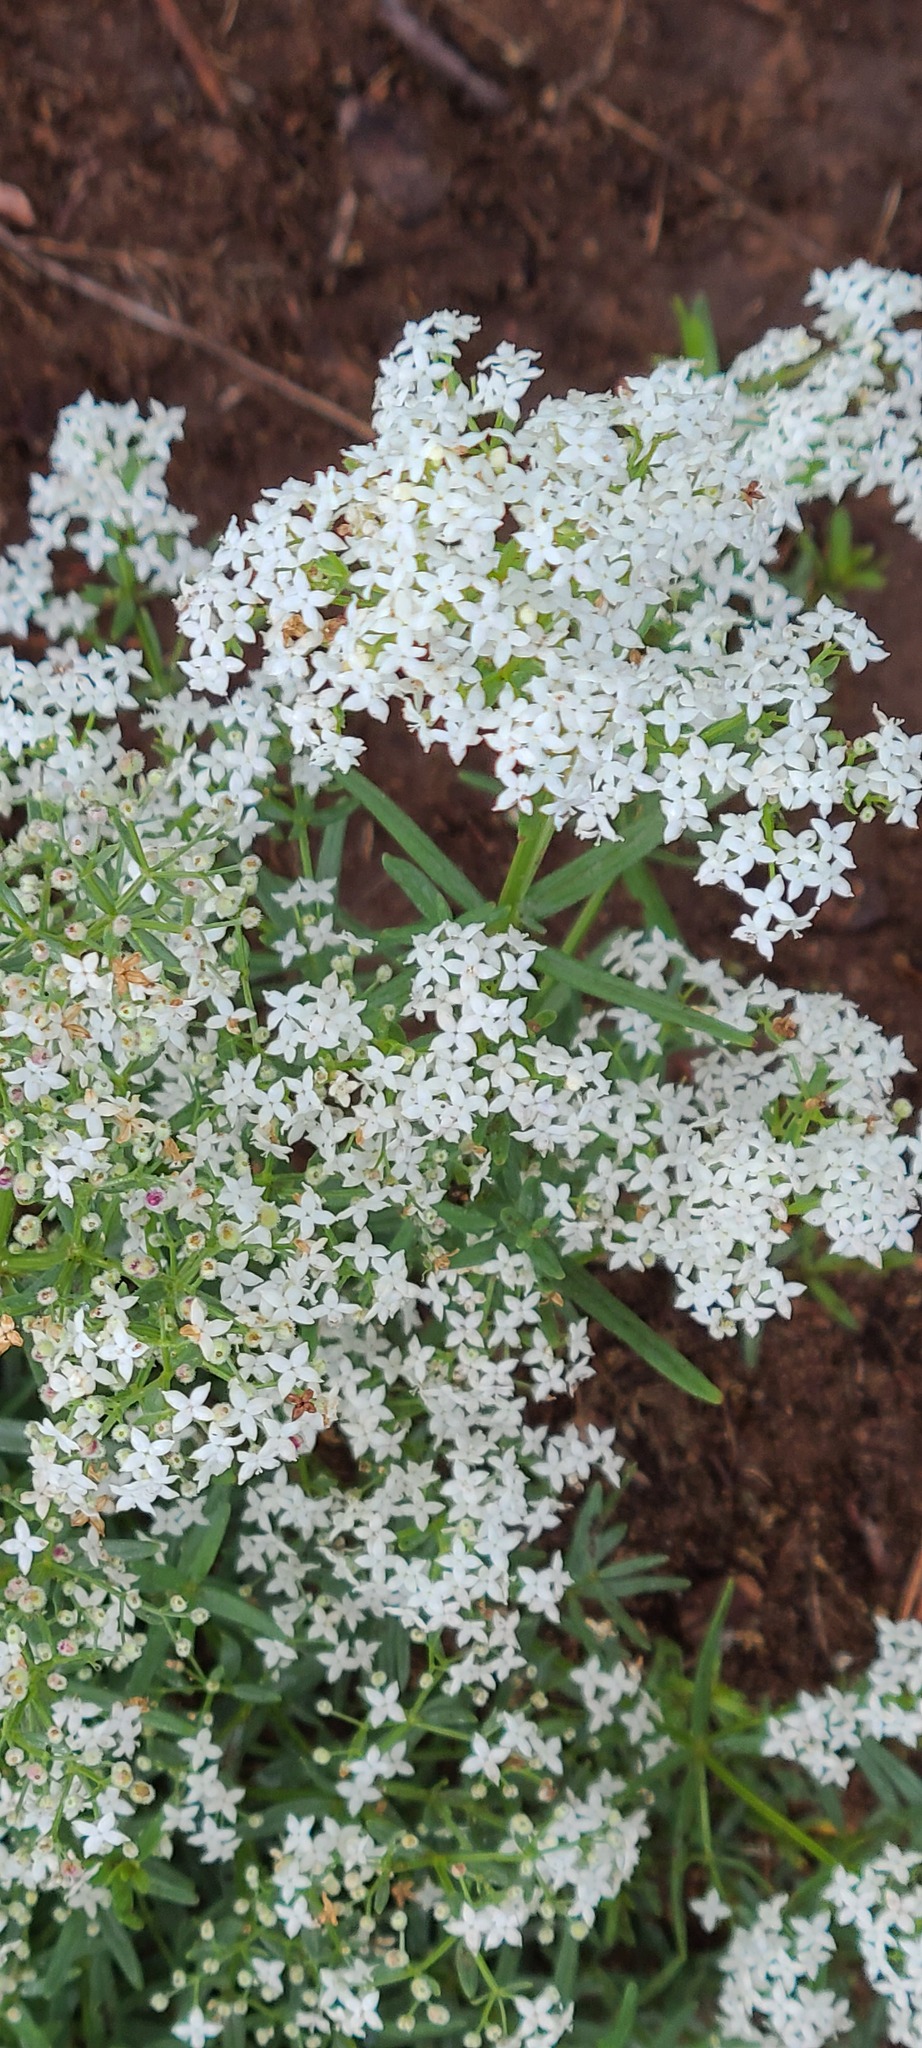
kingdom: Plantae
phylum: Tracheophyta
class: Magnoliopsida
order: Gentianales
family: Rubiaceae
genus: Galium
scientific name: Galium boreale
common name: Northern bedstraw
